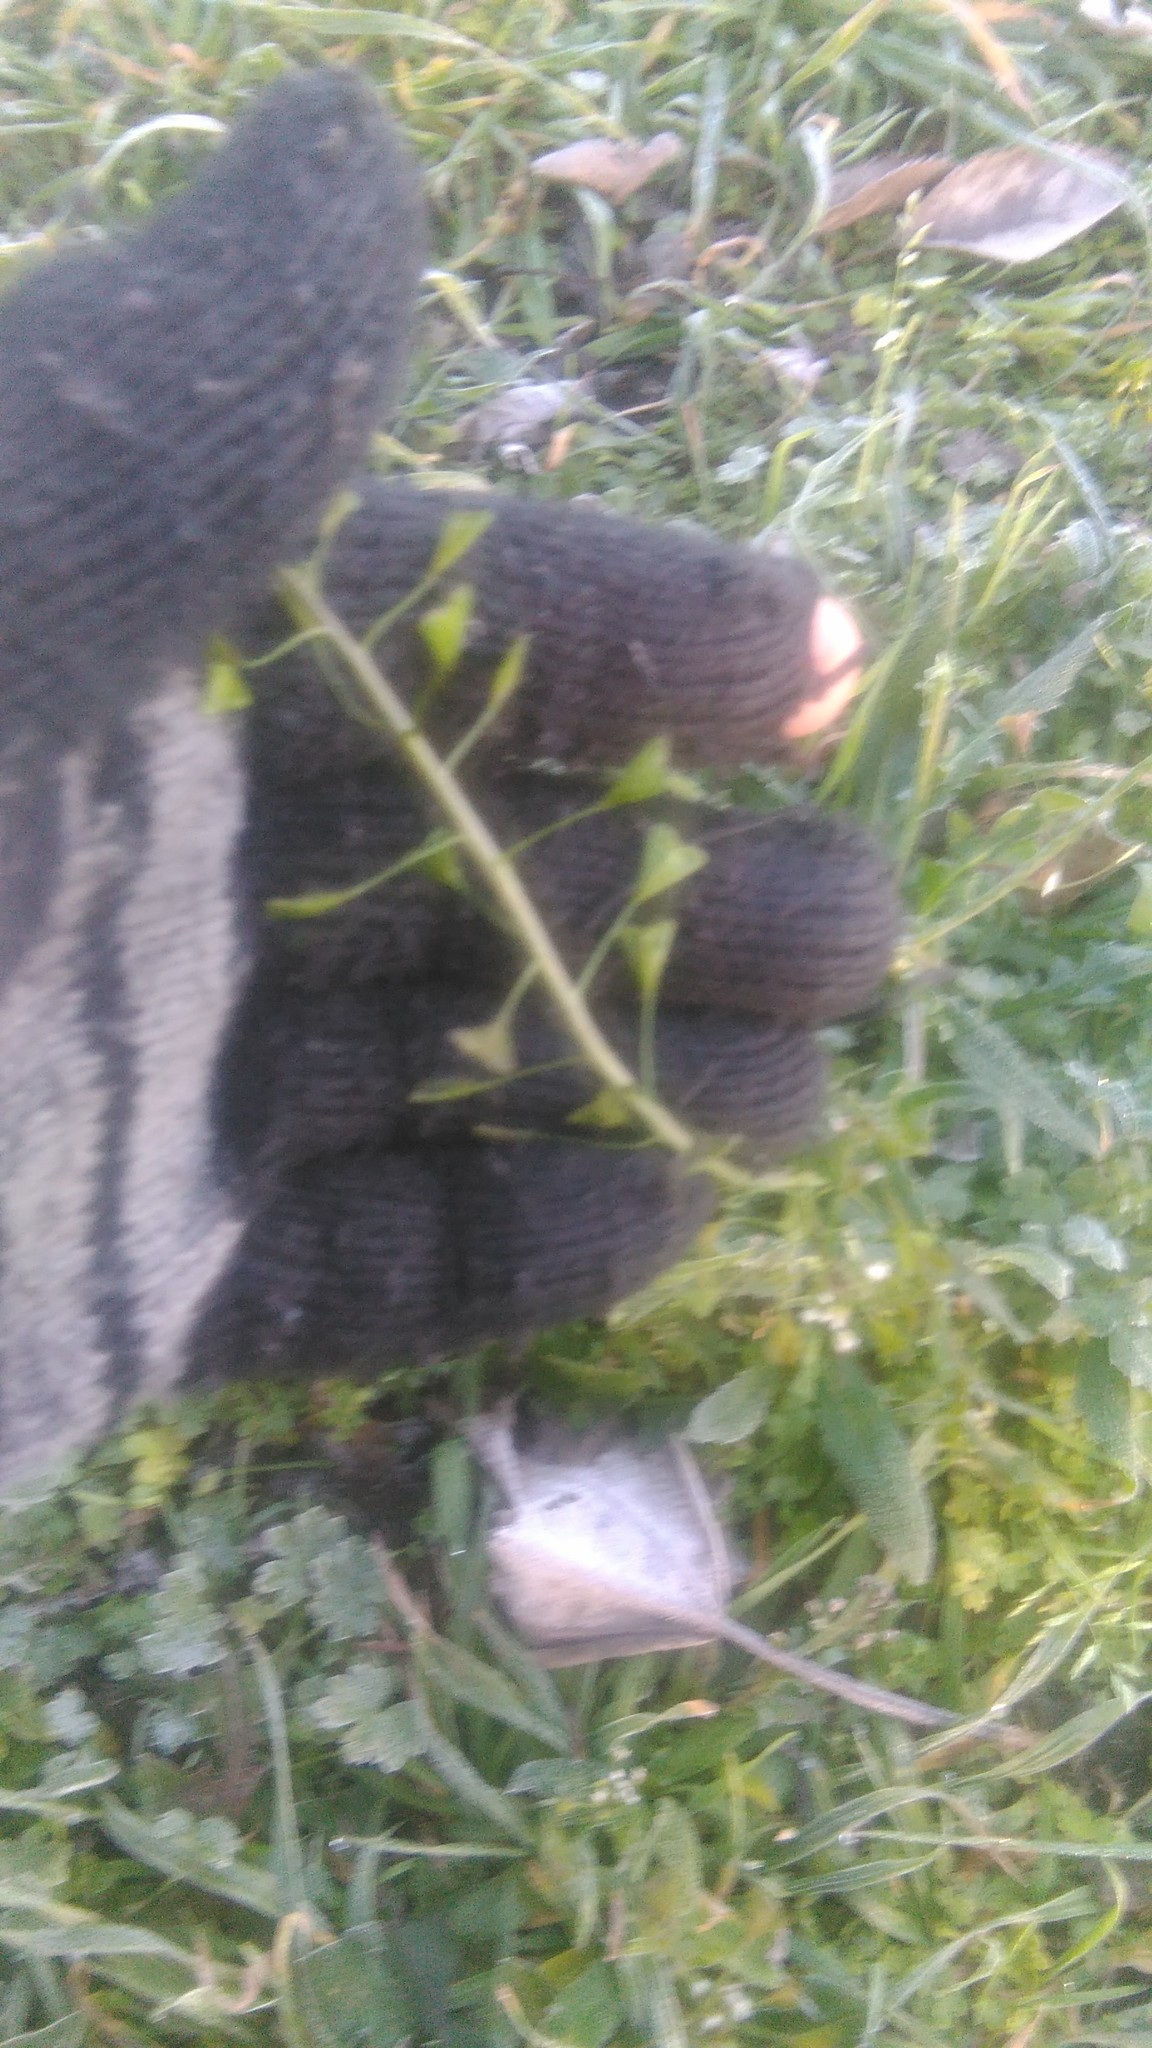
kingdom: Plantae
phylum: Tracheophyta
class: Magnoliopsida
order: Brassicales
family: Brassicaceae
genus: Capsella
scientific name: Capsella bursa-pastoris
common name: Shepherd's purse
